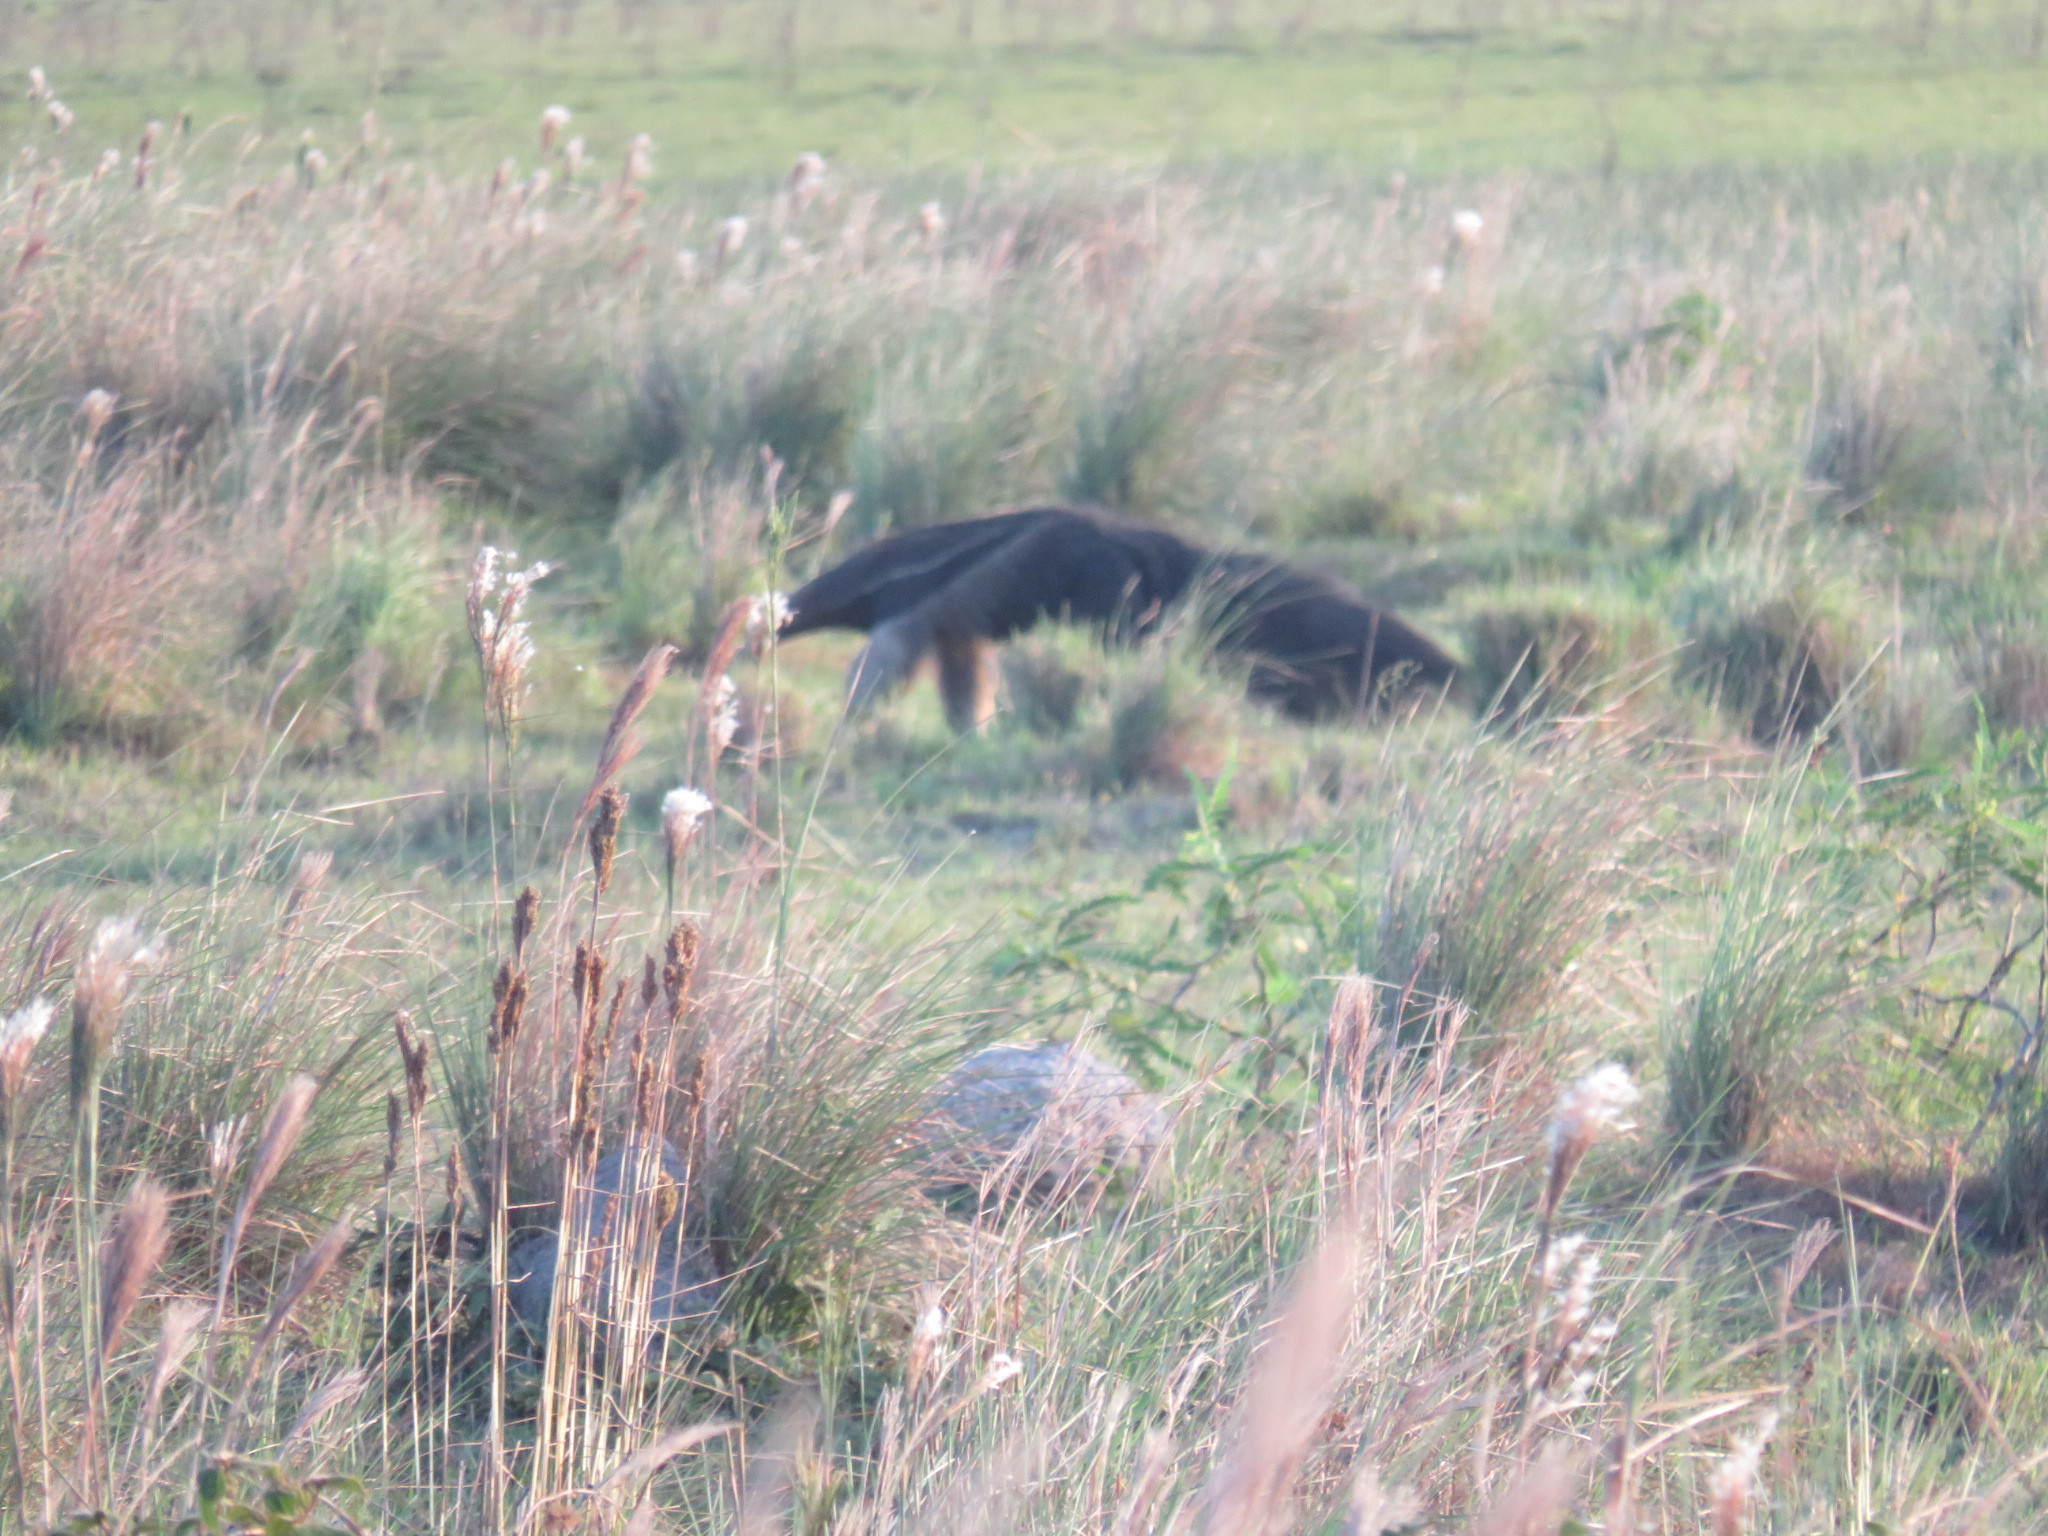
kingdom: Animalia
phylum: Chordata
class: Mammalia
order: Pilosa
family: Myrmecophagidae
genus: Myrmecophaga
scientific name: Myrmecophaga tridactyla
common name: Giant anteater
